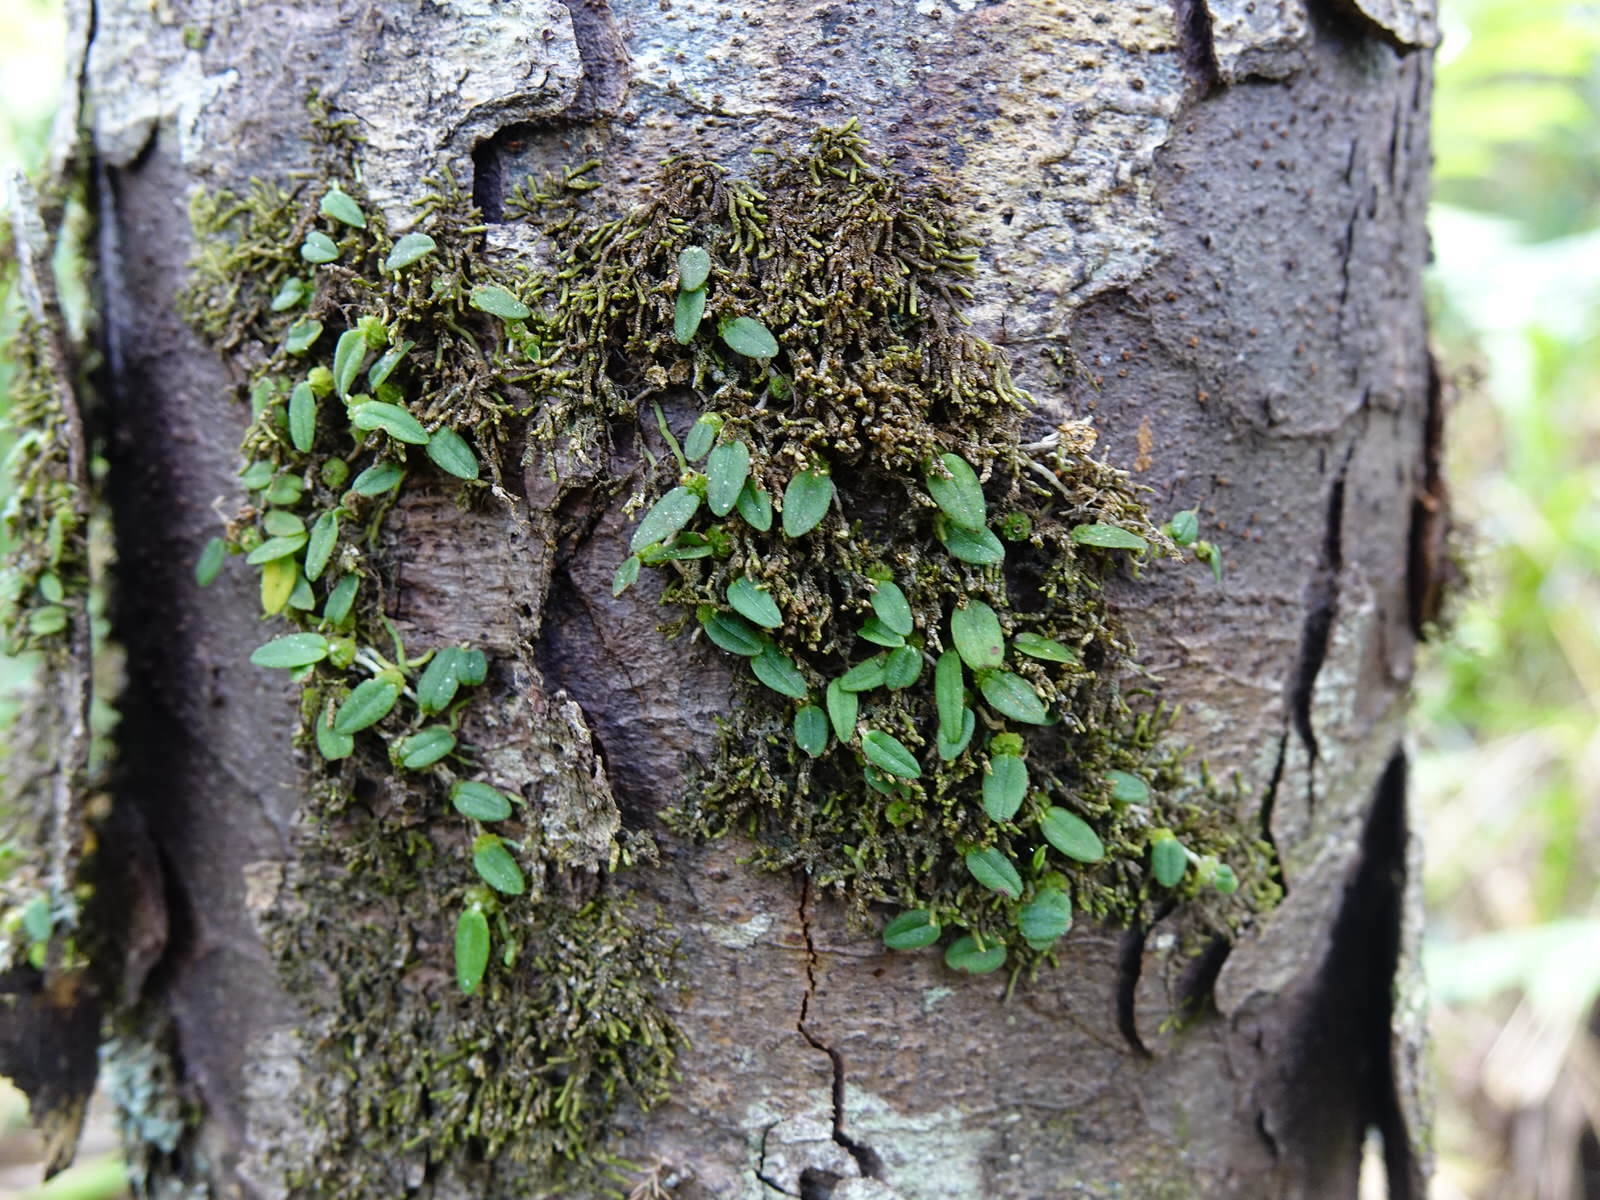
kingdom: Plantae
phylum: Tracheophyta
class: Liliopsida
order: Asparagales
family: Orchidaceae
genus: Bulbophyllum
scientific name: Bulbophyllum pygmaeum
